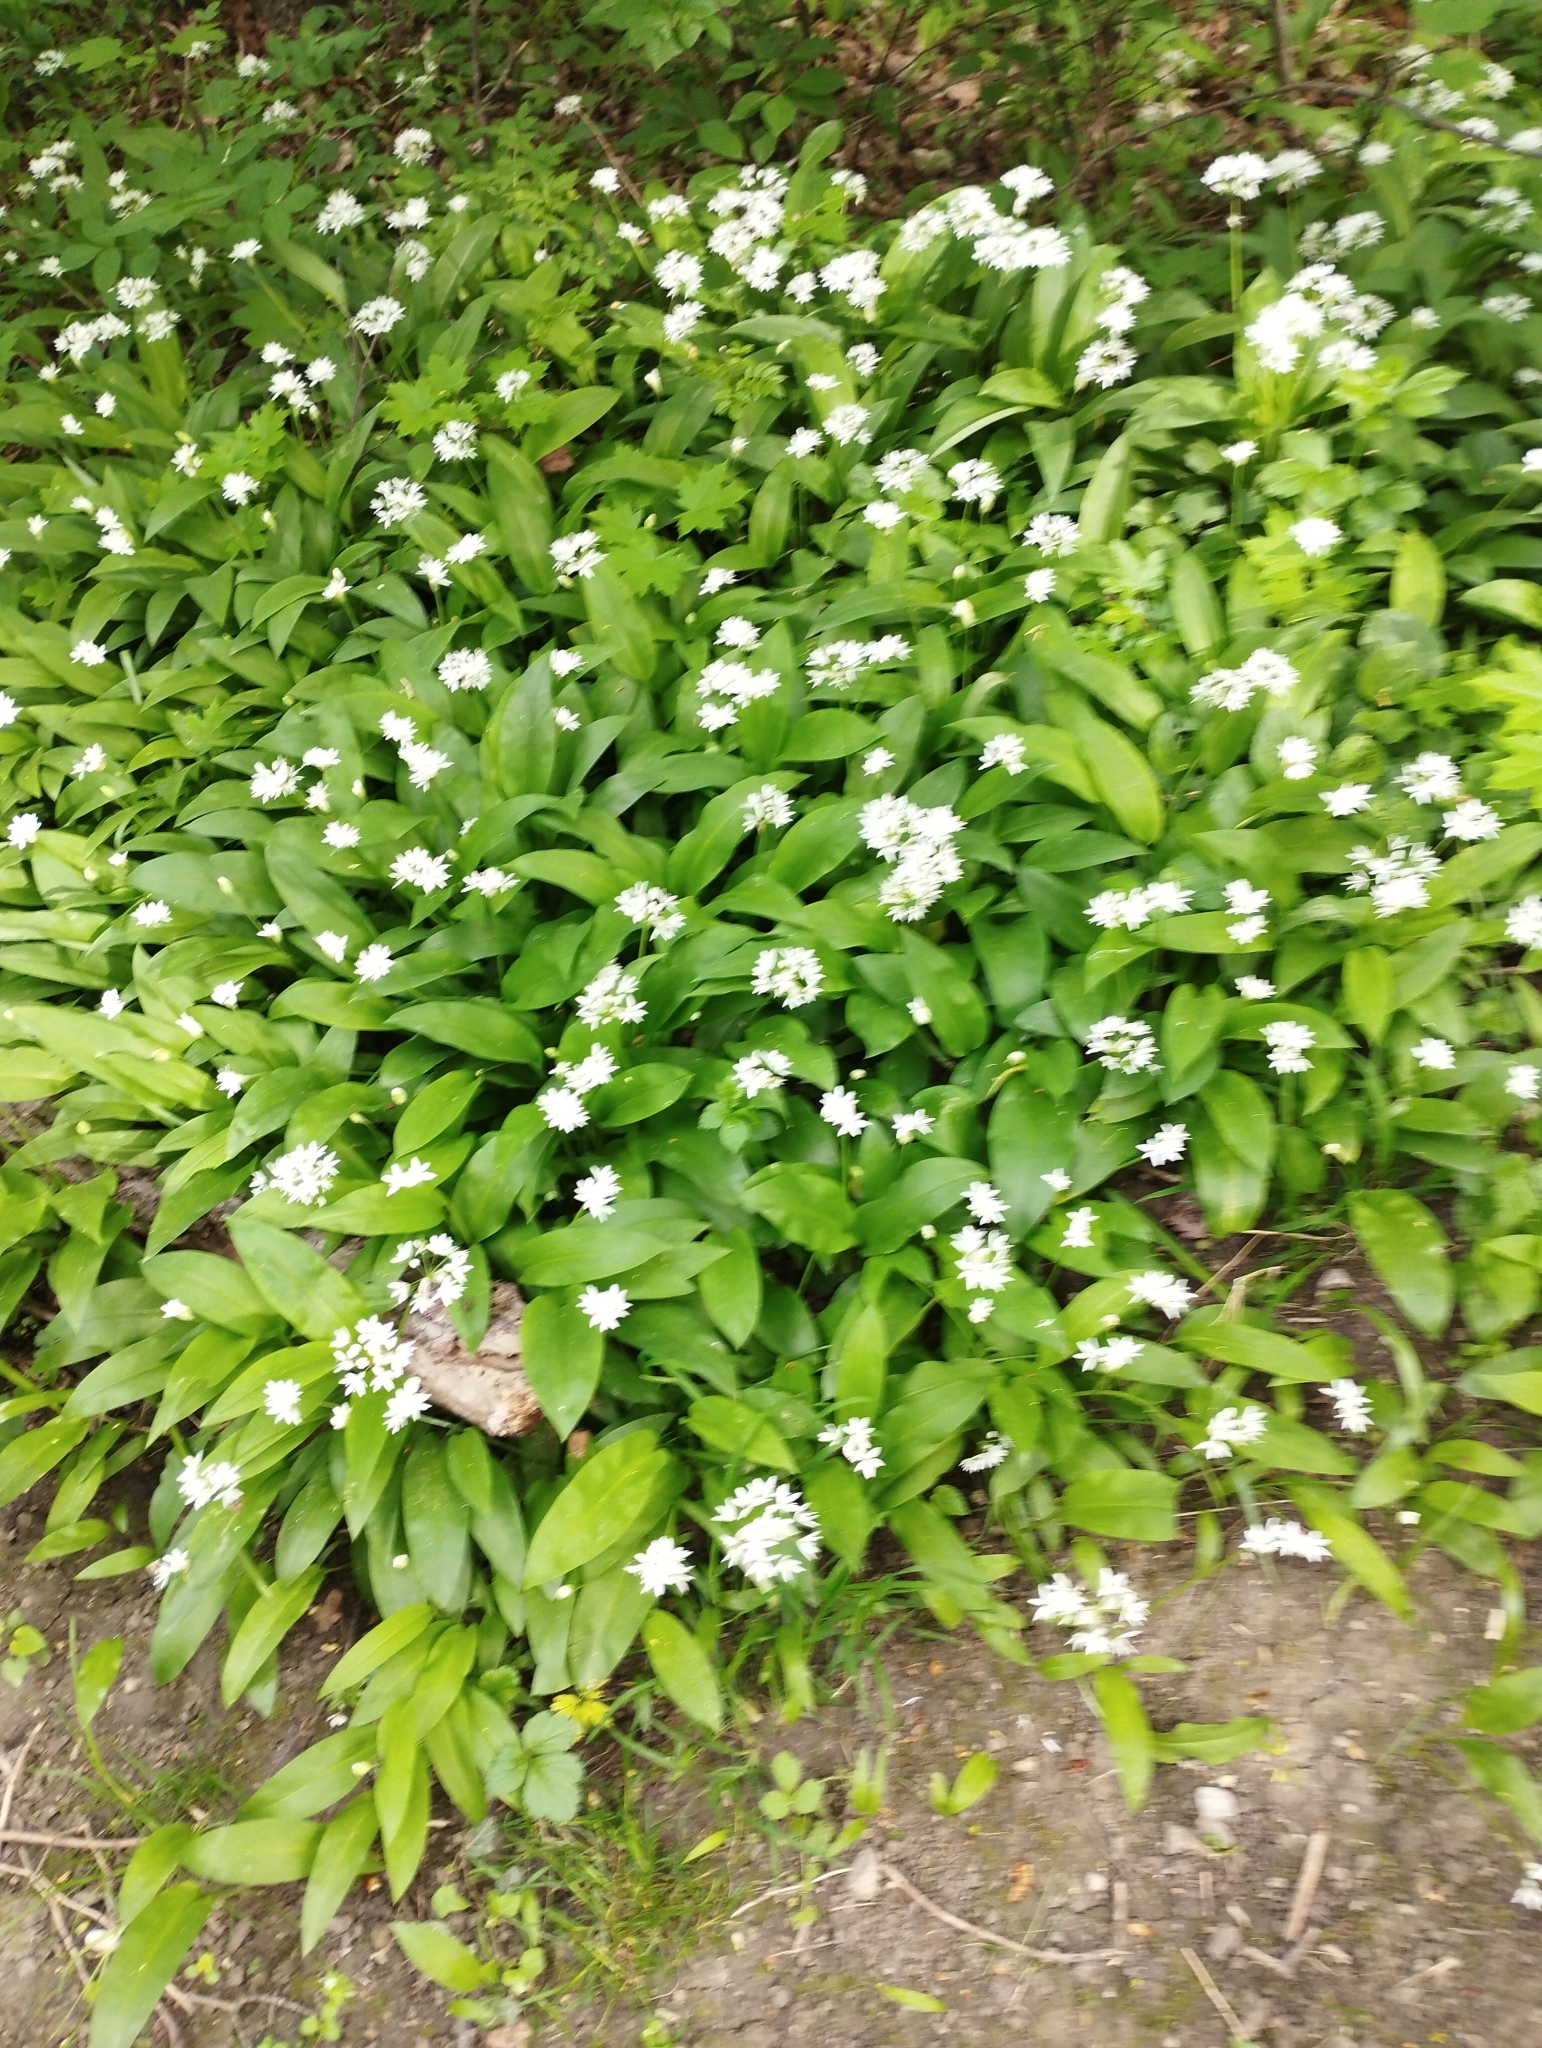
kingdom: Plantae
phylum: Tracheophyta
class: Liliopsida
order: Asparagales
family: Amaryllidaceae
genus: Allium
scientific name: Allium ursinum
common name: Ramsons
